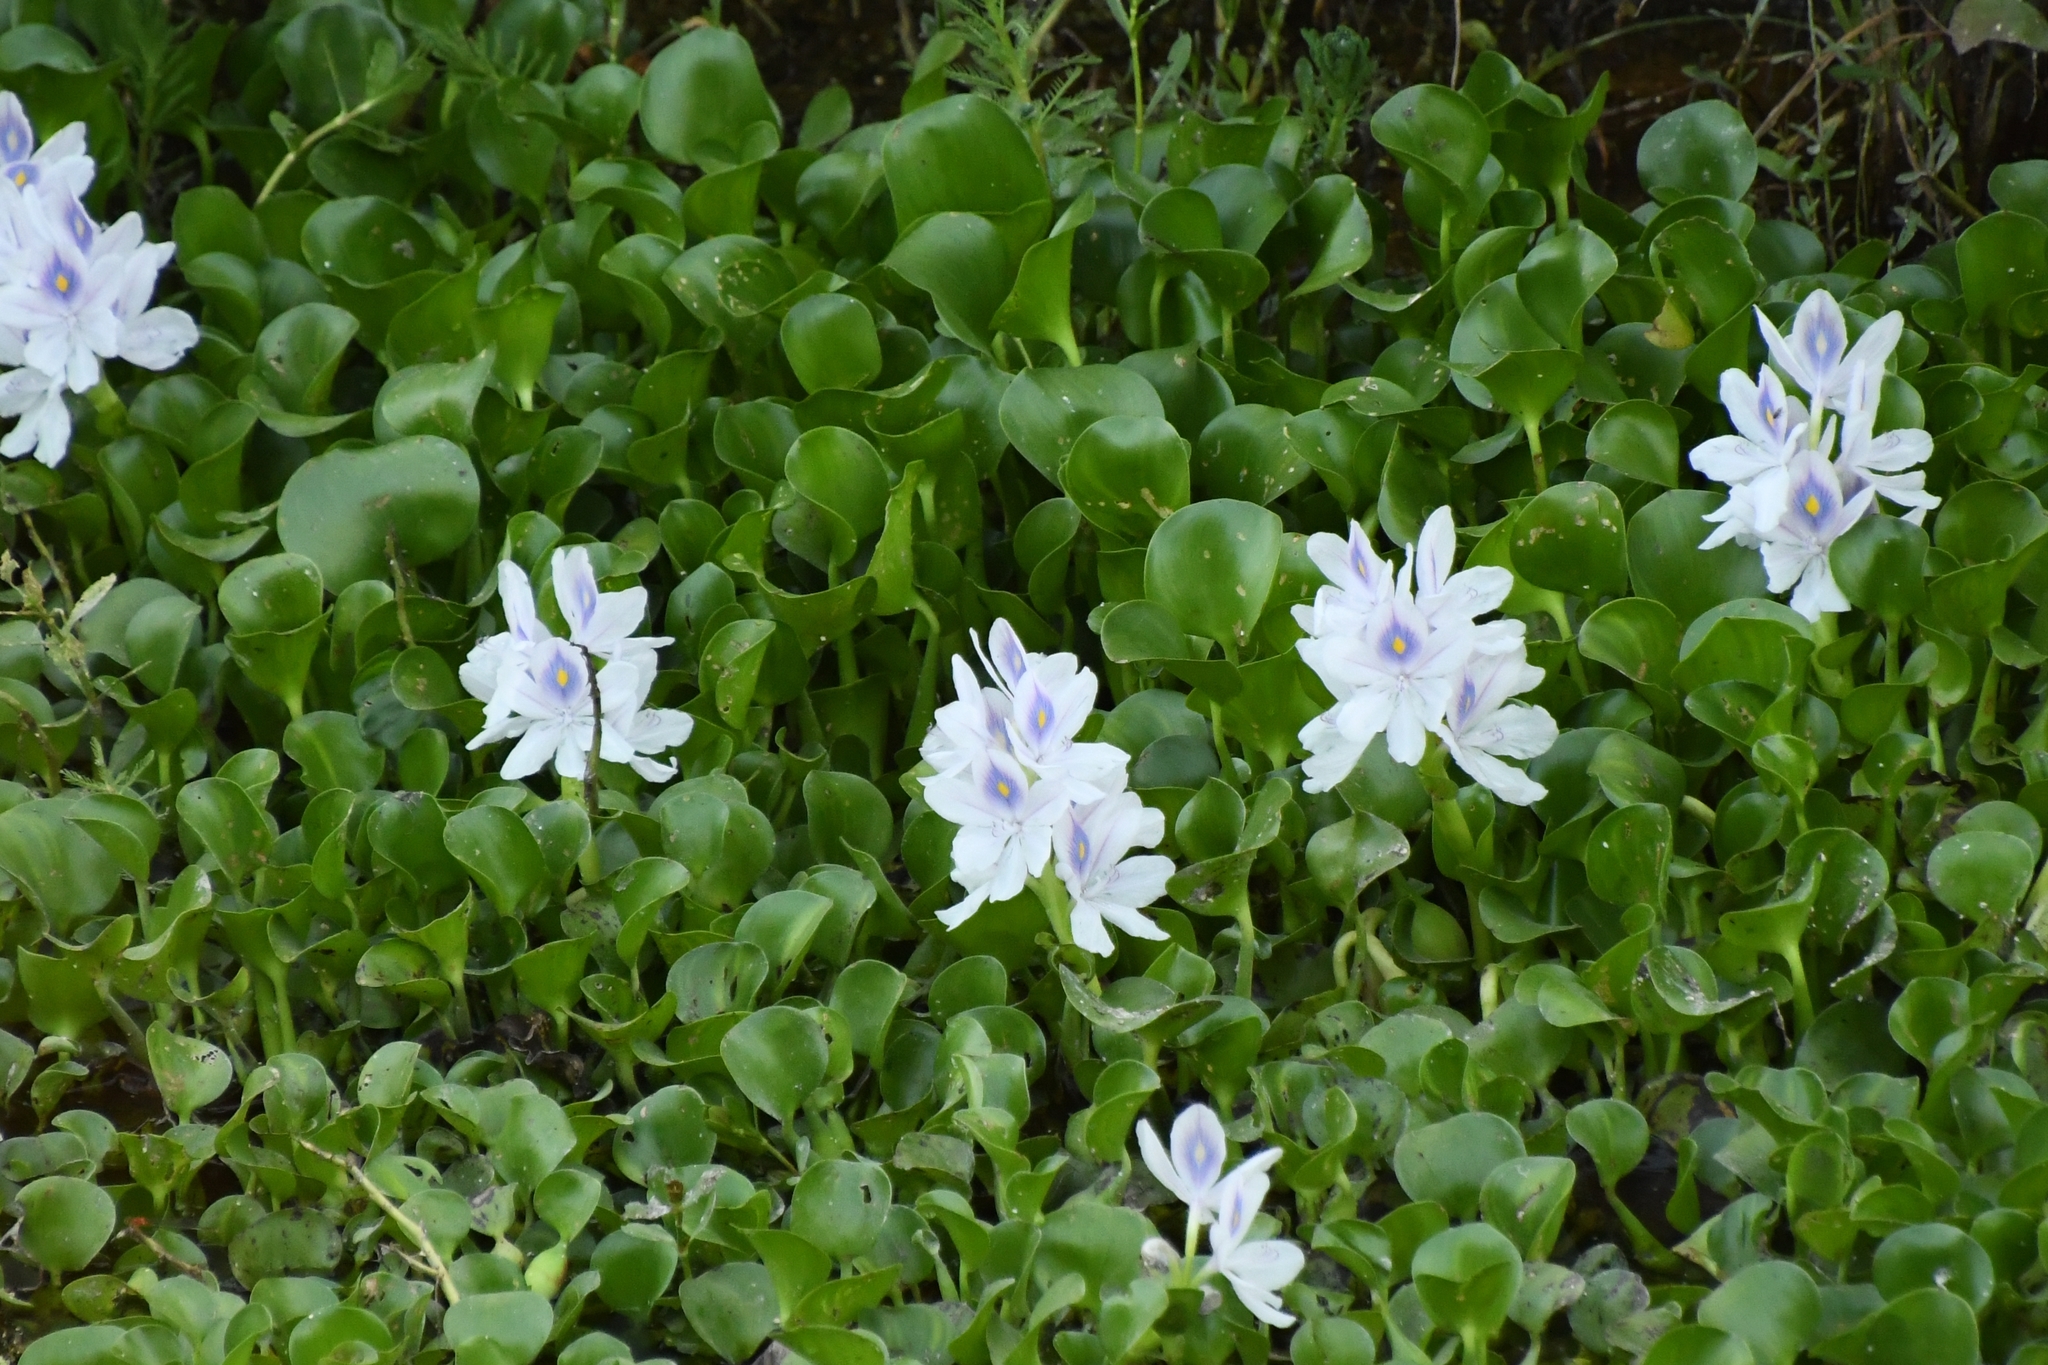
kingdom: Plantae
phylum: Tracheophyta
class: Liliopsida
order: Commelinales
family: Pontederiaceae
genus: Pontederia
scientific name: Pontederia crassipes
